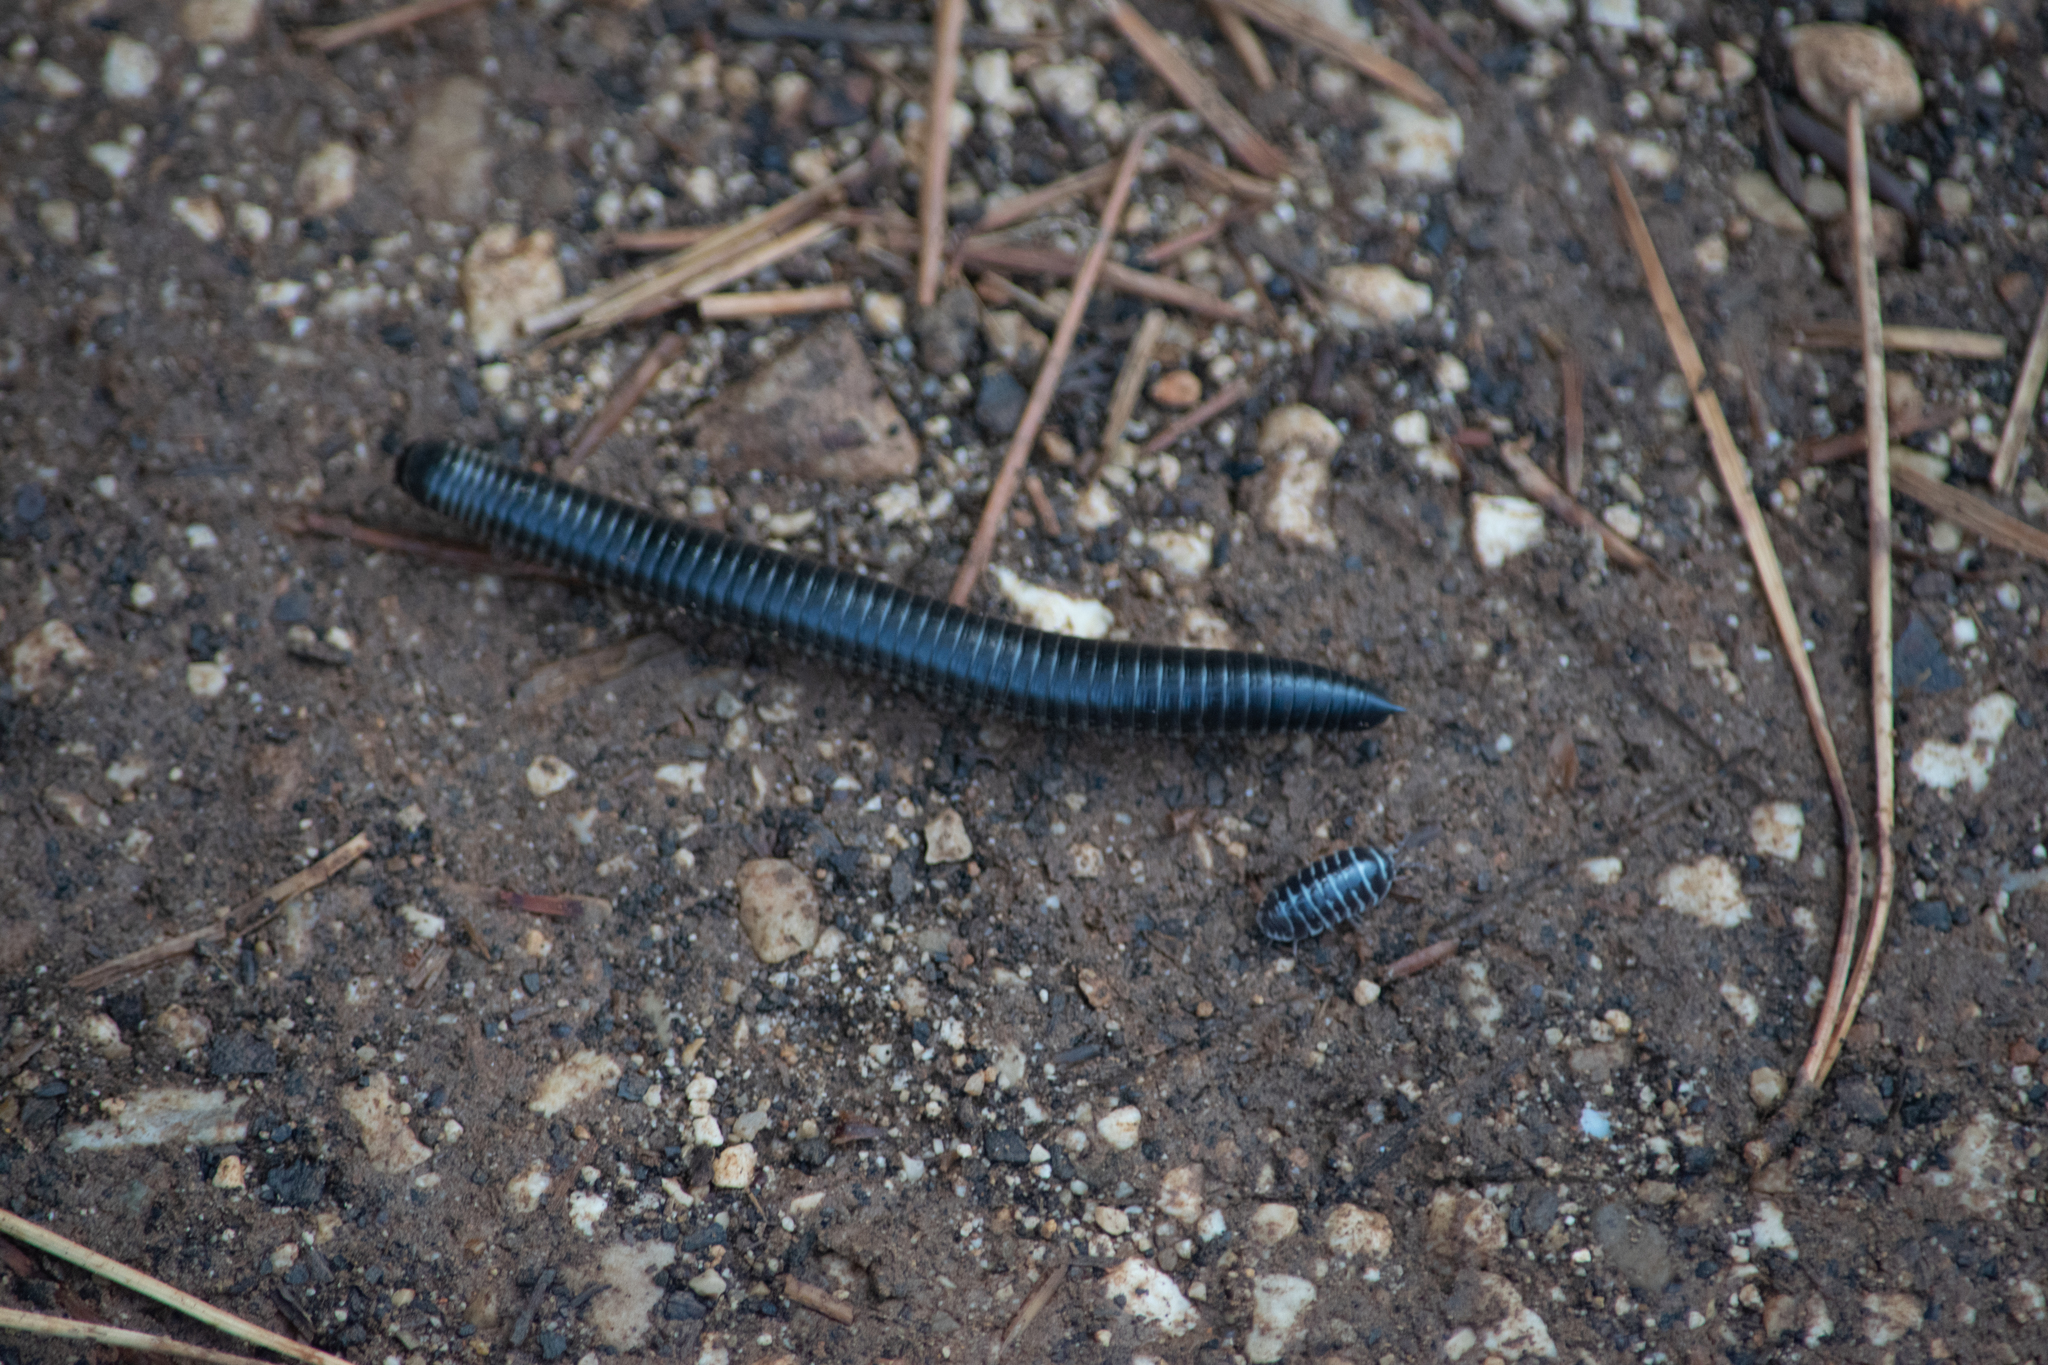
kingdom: Animalia
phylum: Arthropoda
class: Diplopoda
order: Julida
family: Julidae
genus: Ommatoiulus
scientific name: Ommatoiulus sabulosus
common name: Striped millipede
